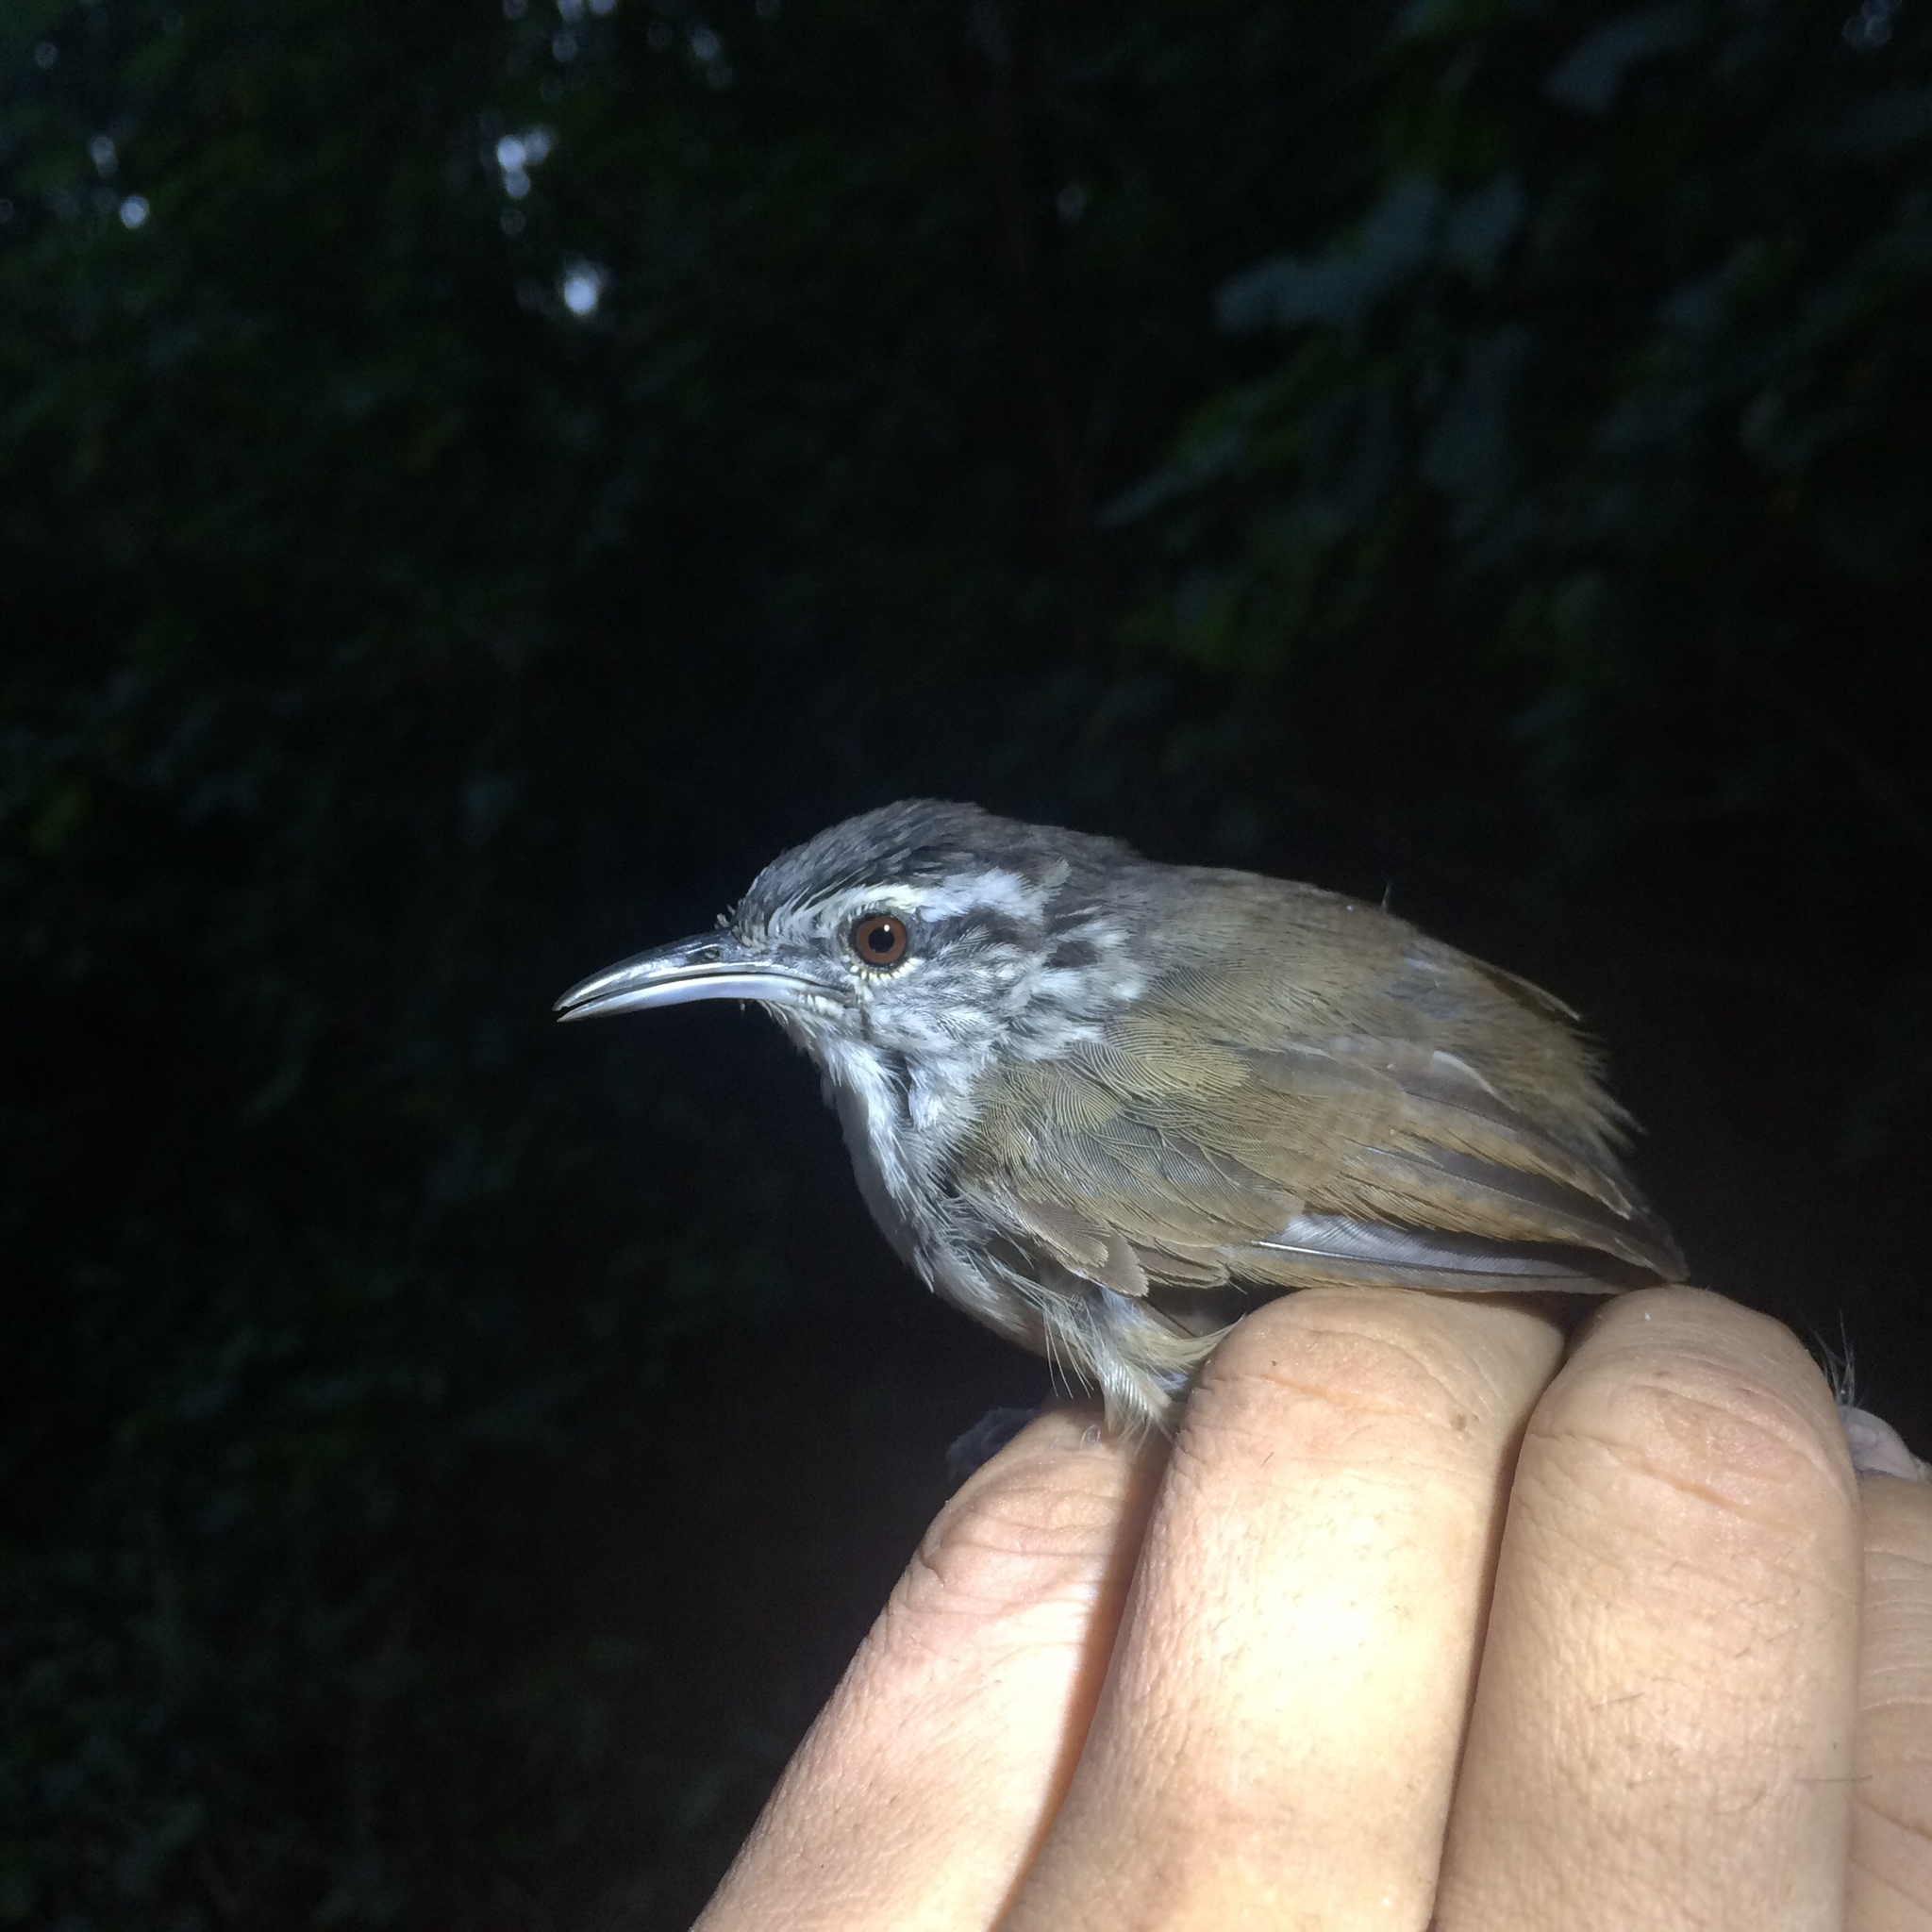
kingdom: Animalia
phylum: Chordata
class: Aves
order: Passeriformes
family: Troglodytidae
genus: Cantorchilus
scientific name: Cantorchilus modestus
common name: Cabanis's wren
